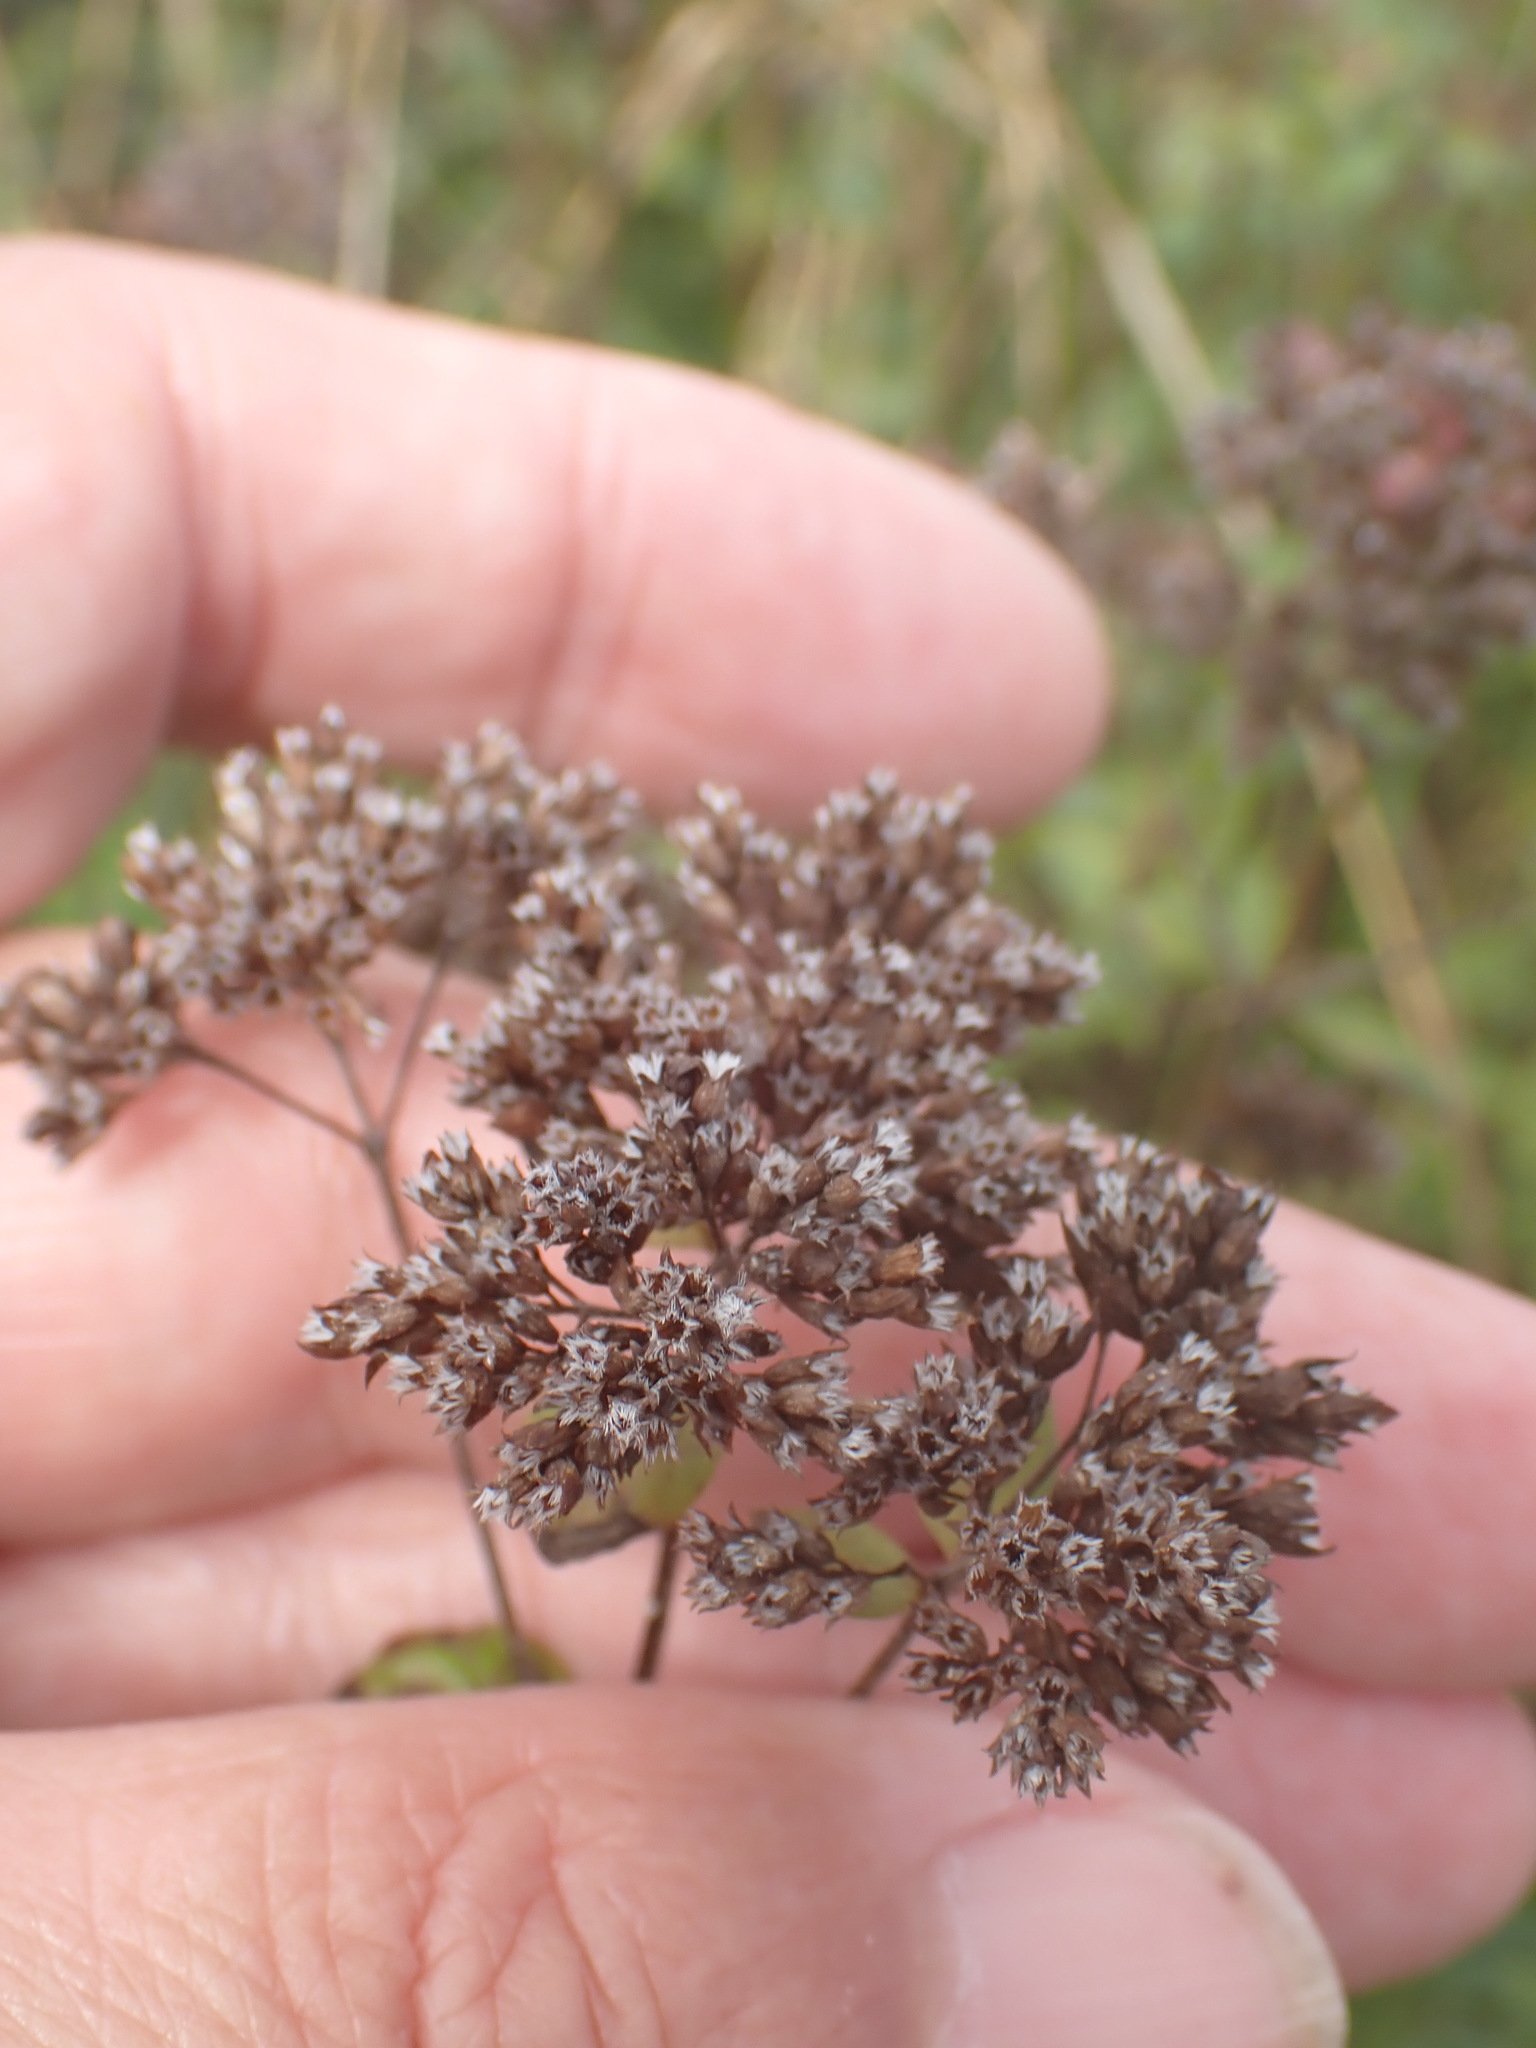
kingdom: Plantae
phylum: Tracheophyta
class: Magnoliopsida
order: Lamiales
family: Lamiaceae
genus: Origanum
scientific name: Origanum vulgare
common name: Wild marjoram
